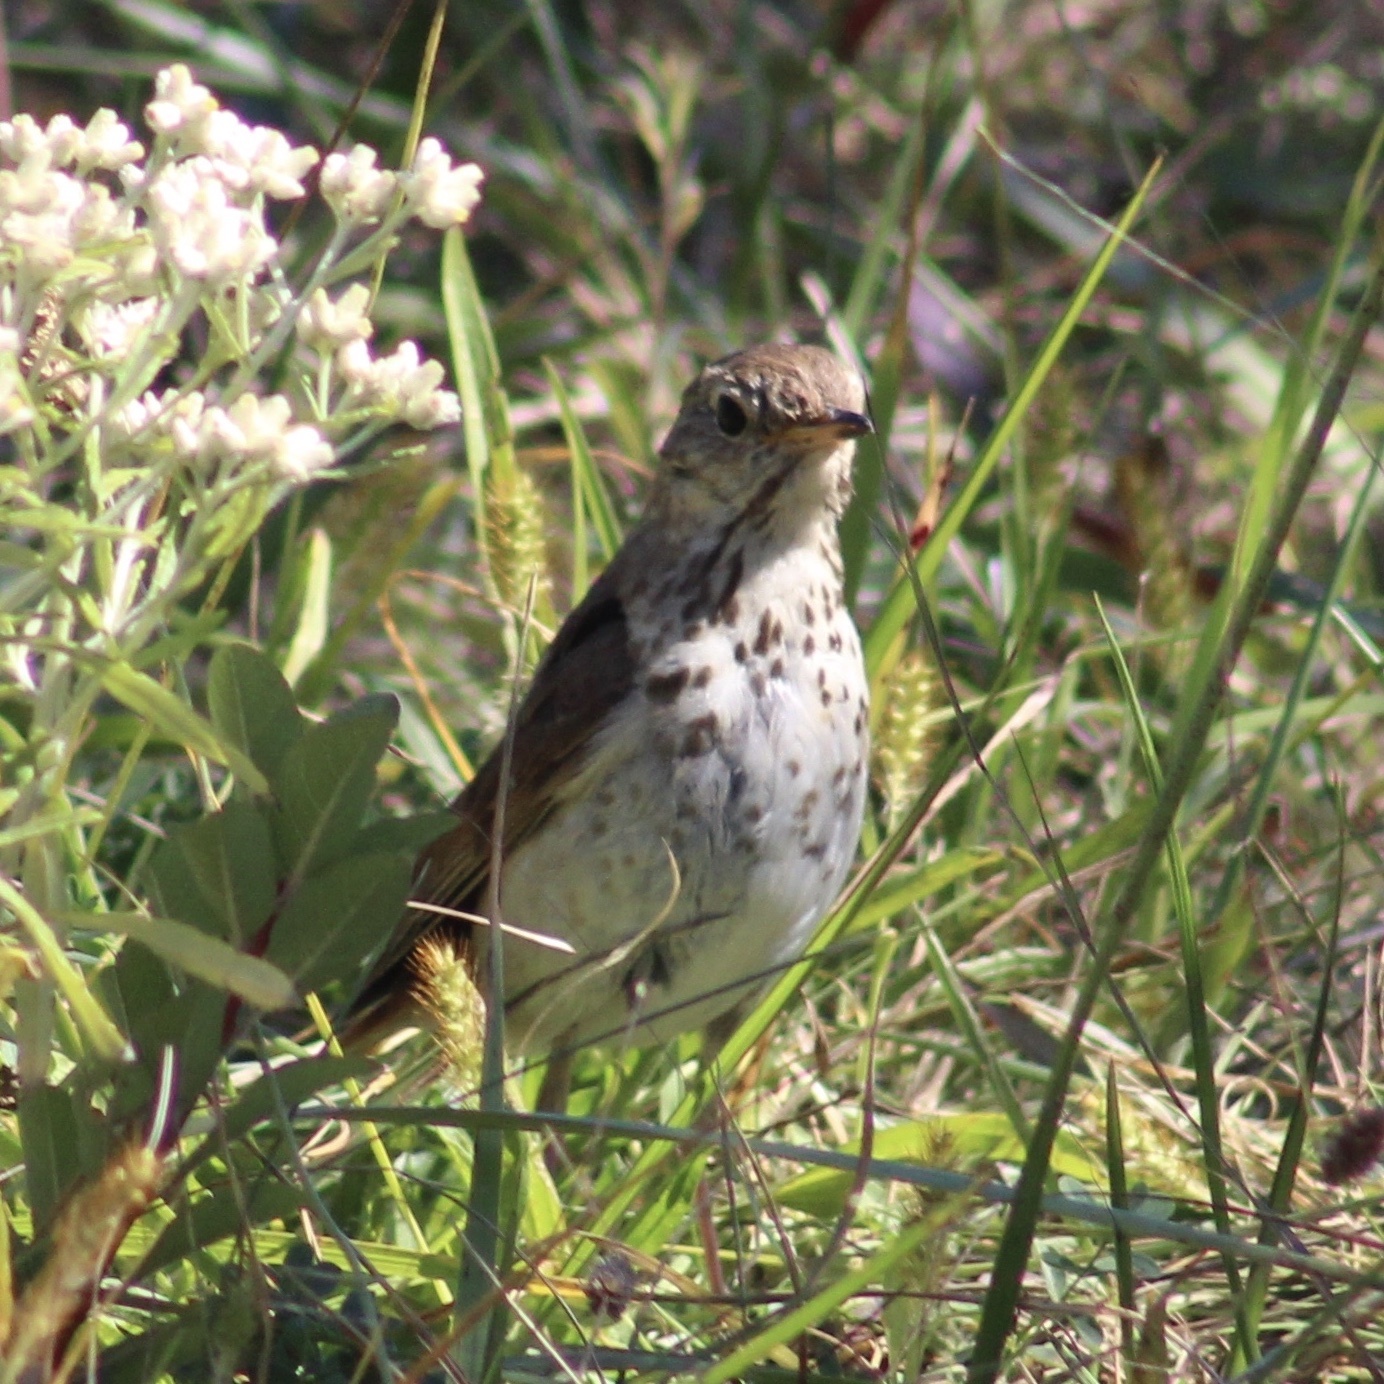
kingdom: Animalia
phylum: Chordata
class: Aves
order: Passeriformes
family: Turdidae
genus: Catharus
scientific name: Catharus guttatus
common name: Hermit thrush
